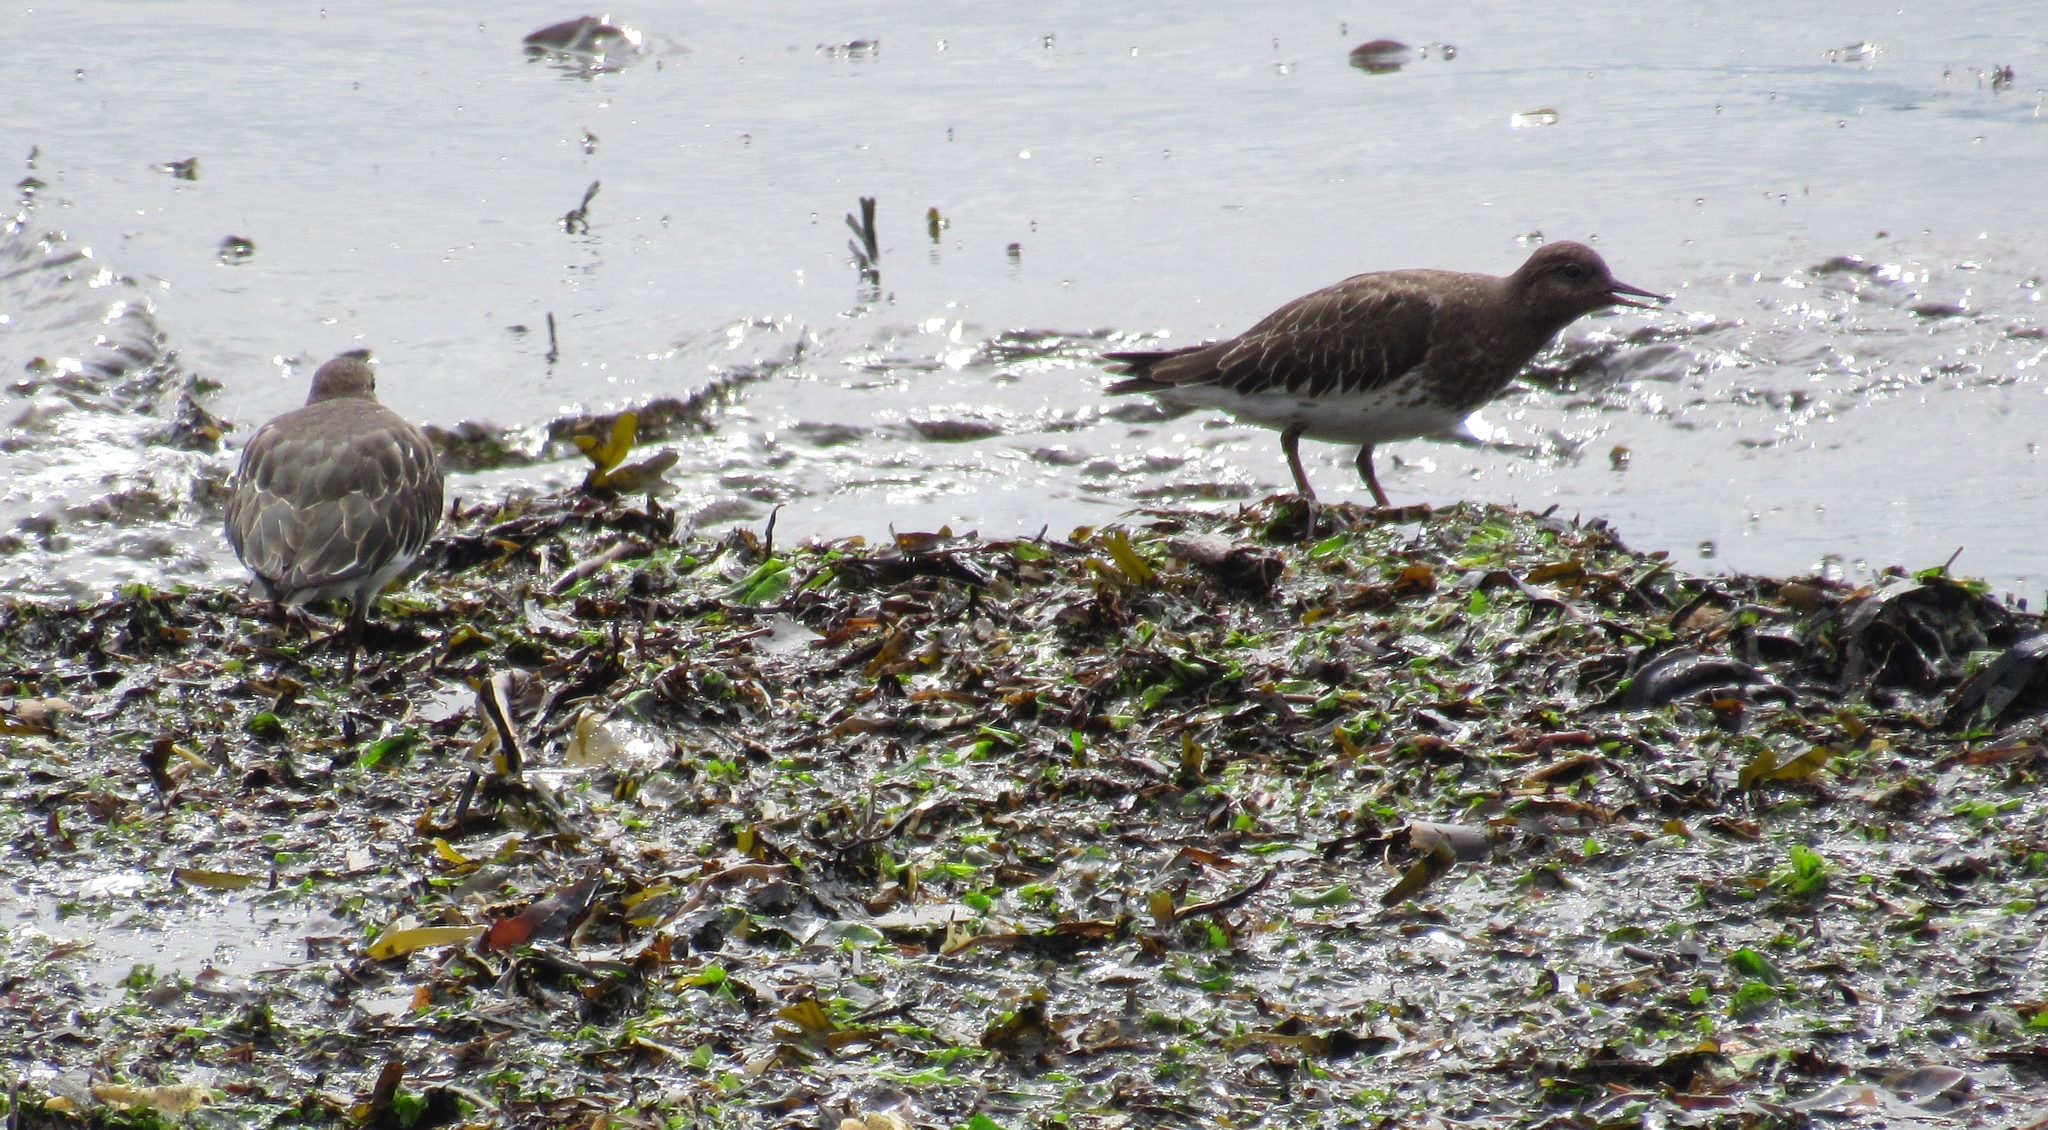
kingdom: Animalia
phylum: Chordata
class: Aves
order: Charadriiformes
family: Scolopacidae
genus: Arenaria
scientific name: Arenaria melanocephala
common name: Black turnstone
